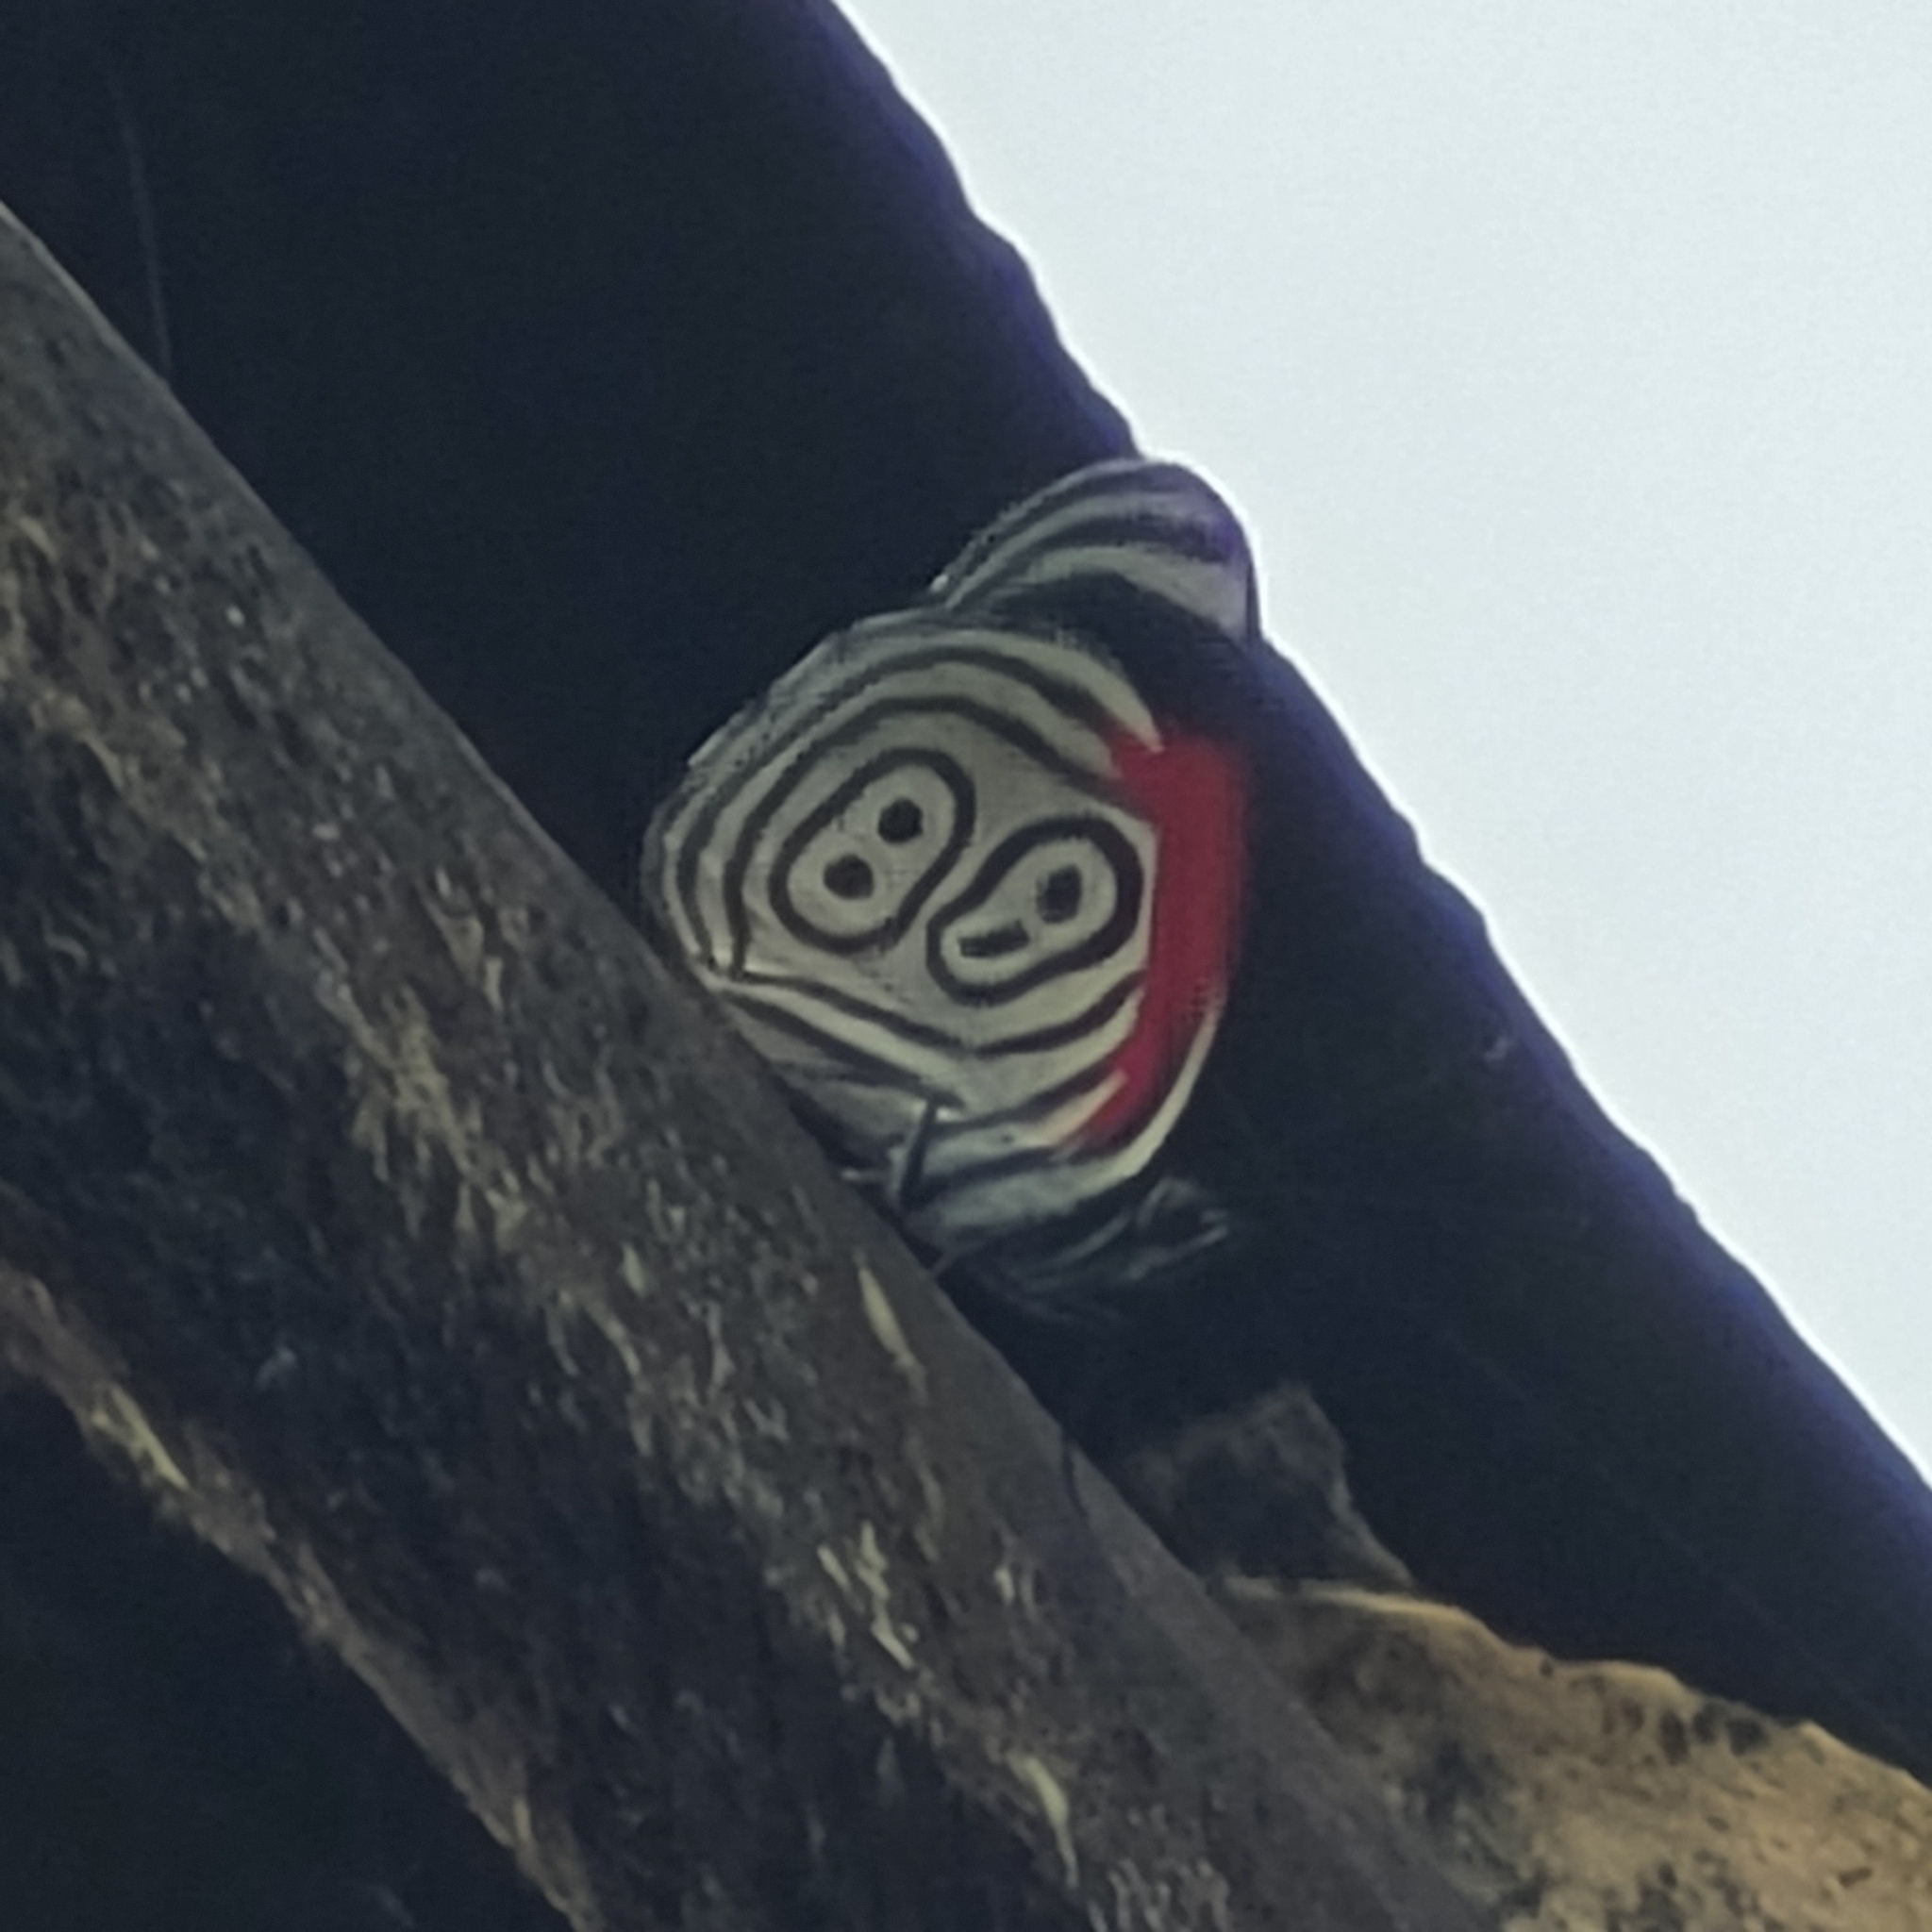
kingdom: Animalia
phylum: Arthropoda
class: Insecta
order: Lepidoptera
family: Nymphalidae
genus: Diaethria
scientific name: Diaethria clymena
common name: Widespread eighty-eight
